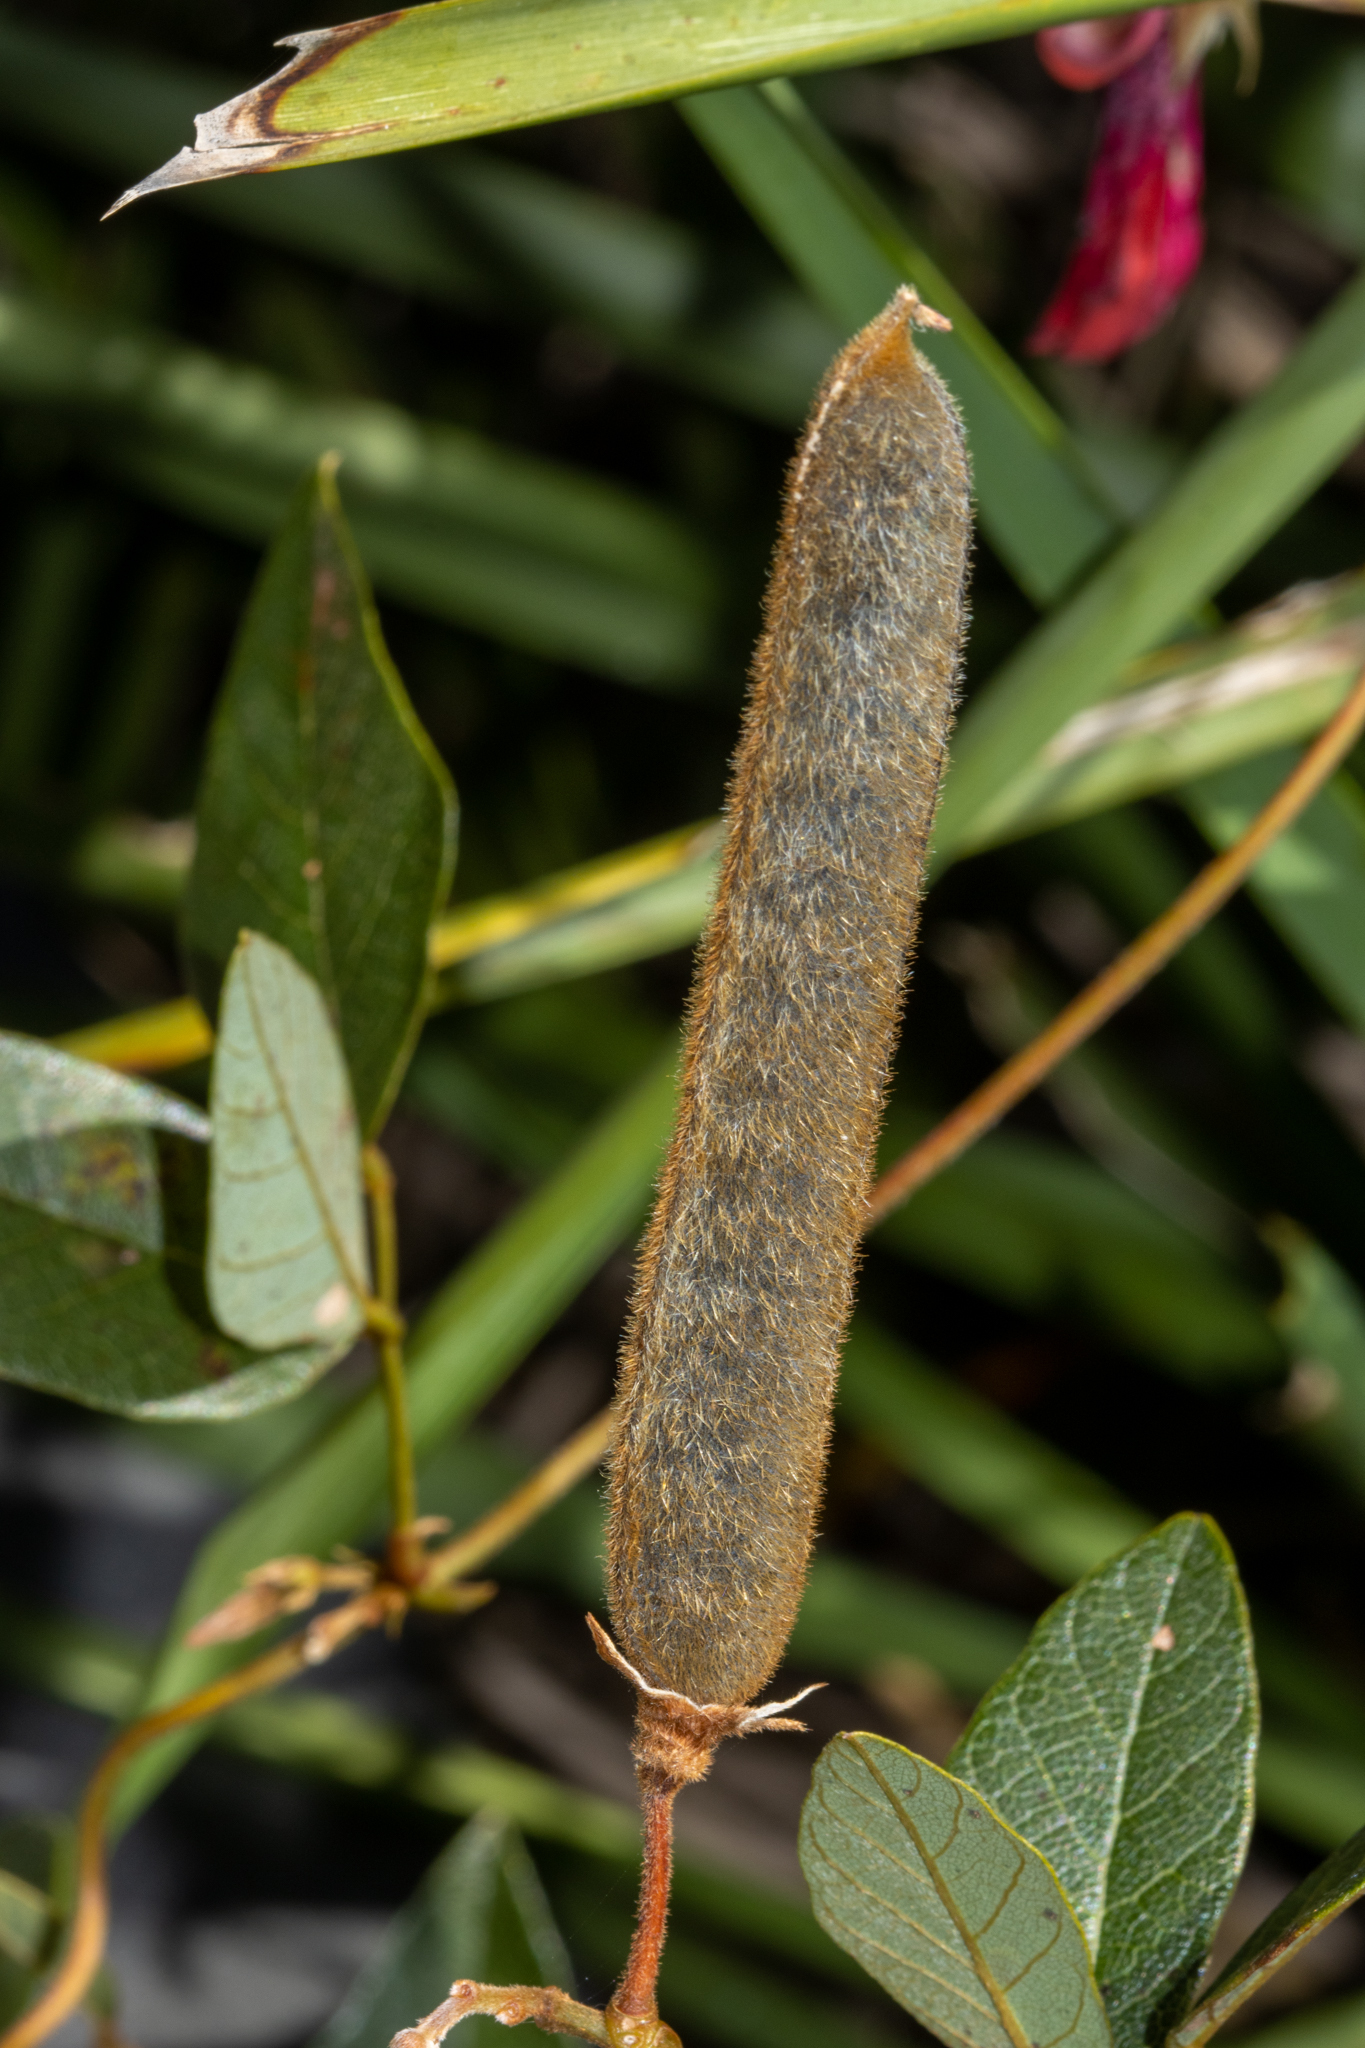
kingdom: Plantae
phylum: Tracheophyta
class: Magnoliopsida
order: Fabales
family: Fabaceae
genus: Kennedia
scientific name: Kennedia rubicunda
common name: Red kennedy-pea
